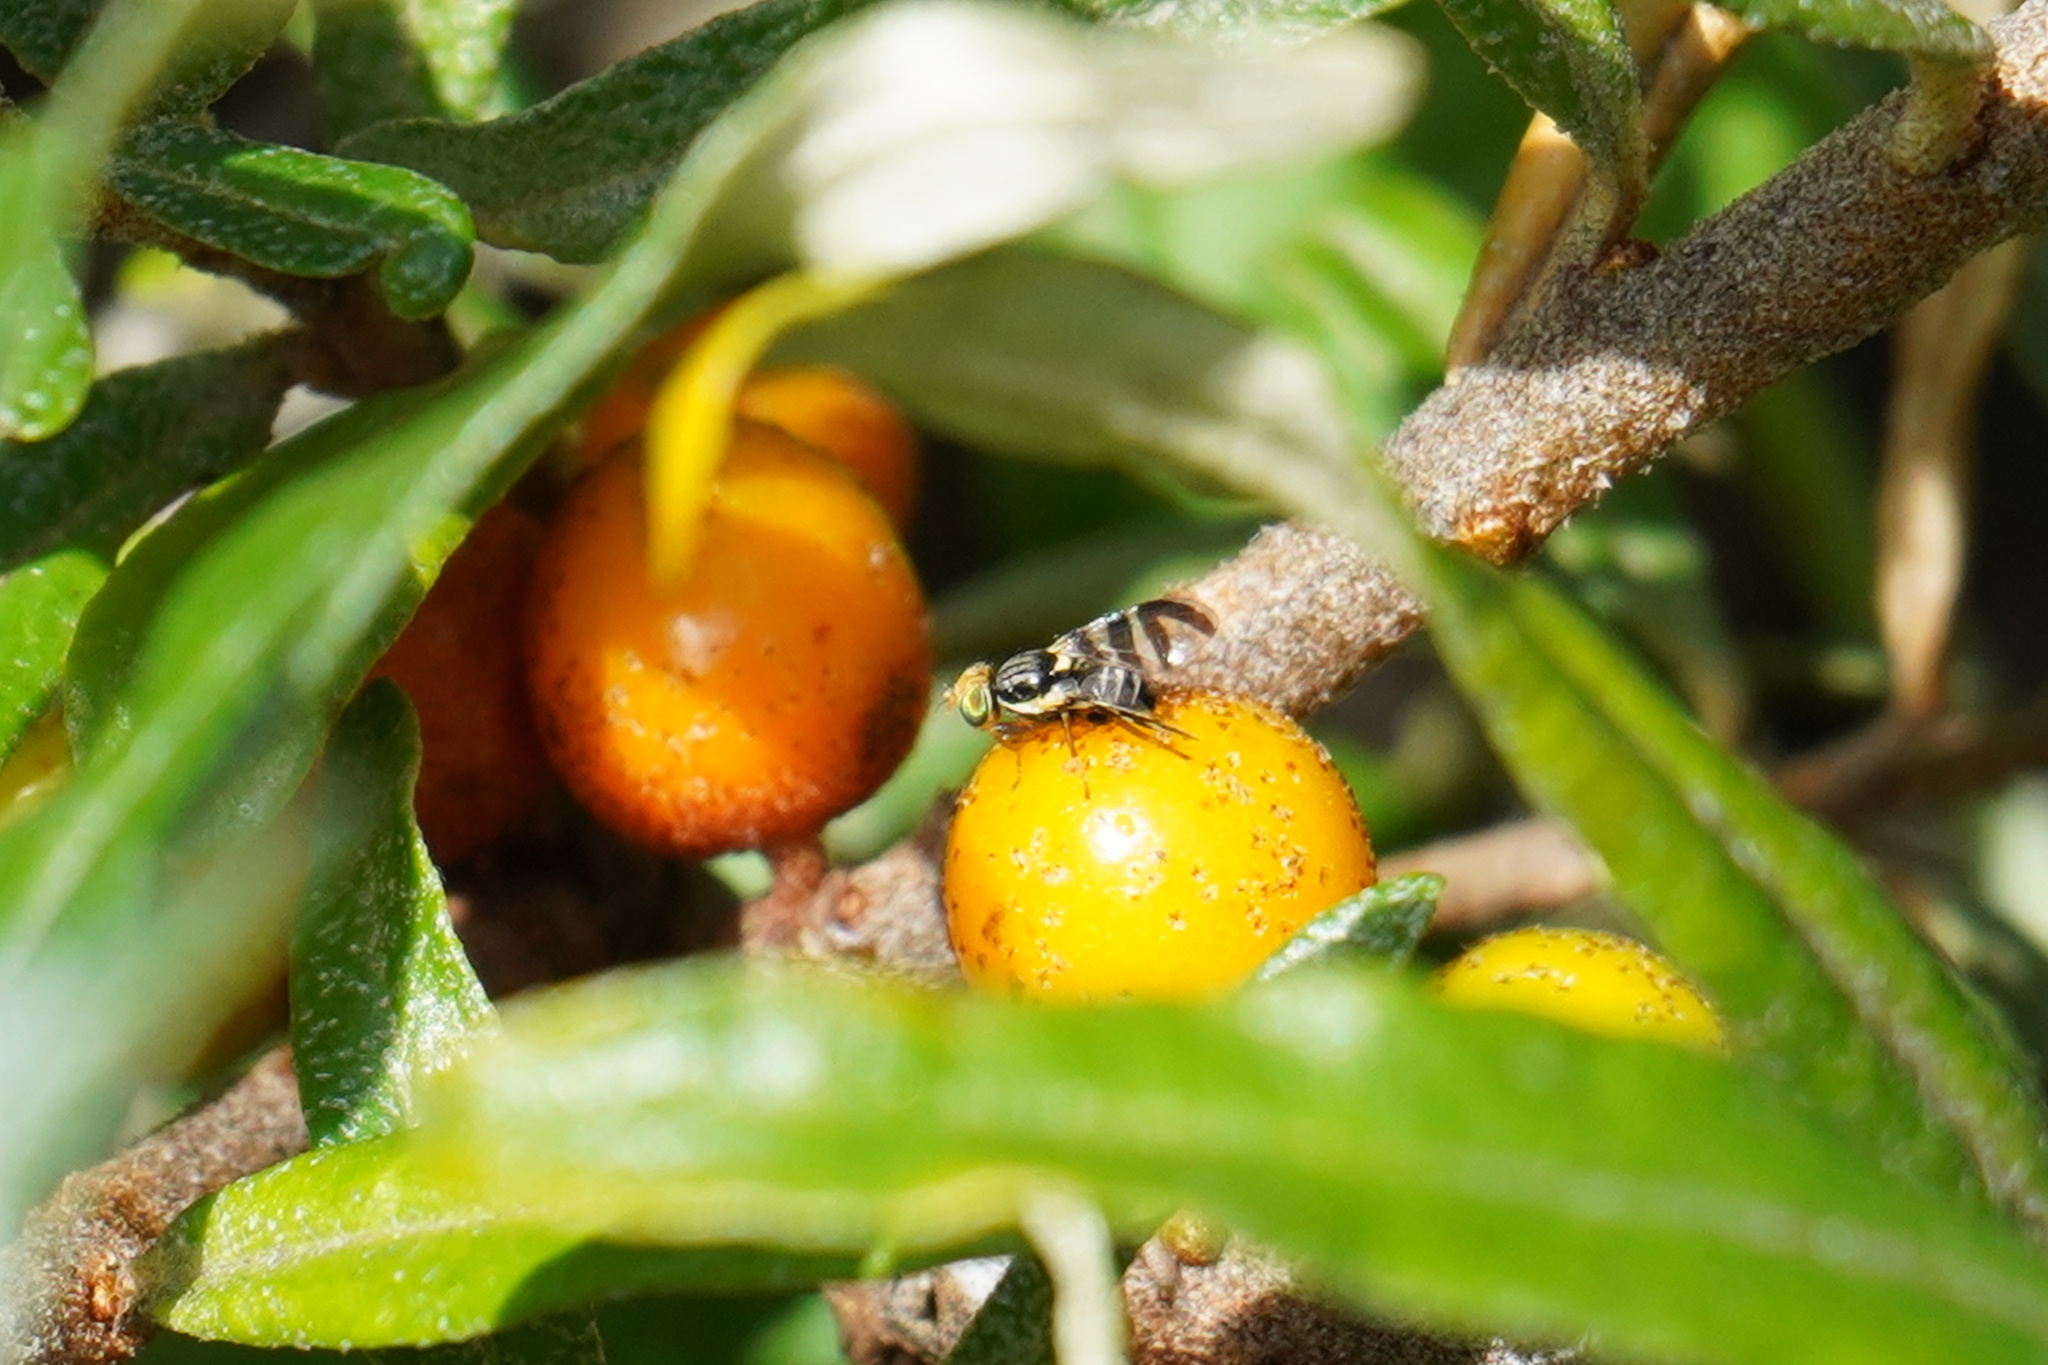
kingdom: Animalia
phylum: Arthropoda
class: Insecta
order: Diptera
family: Tephritidae
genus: Rhagoletis
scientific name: Rhagoletis batava
